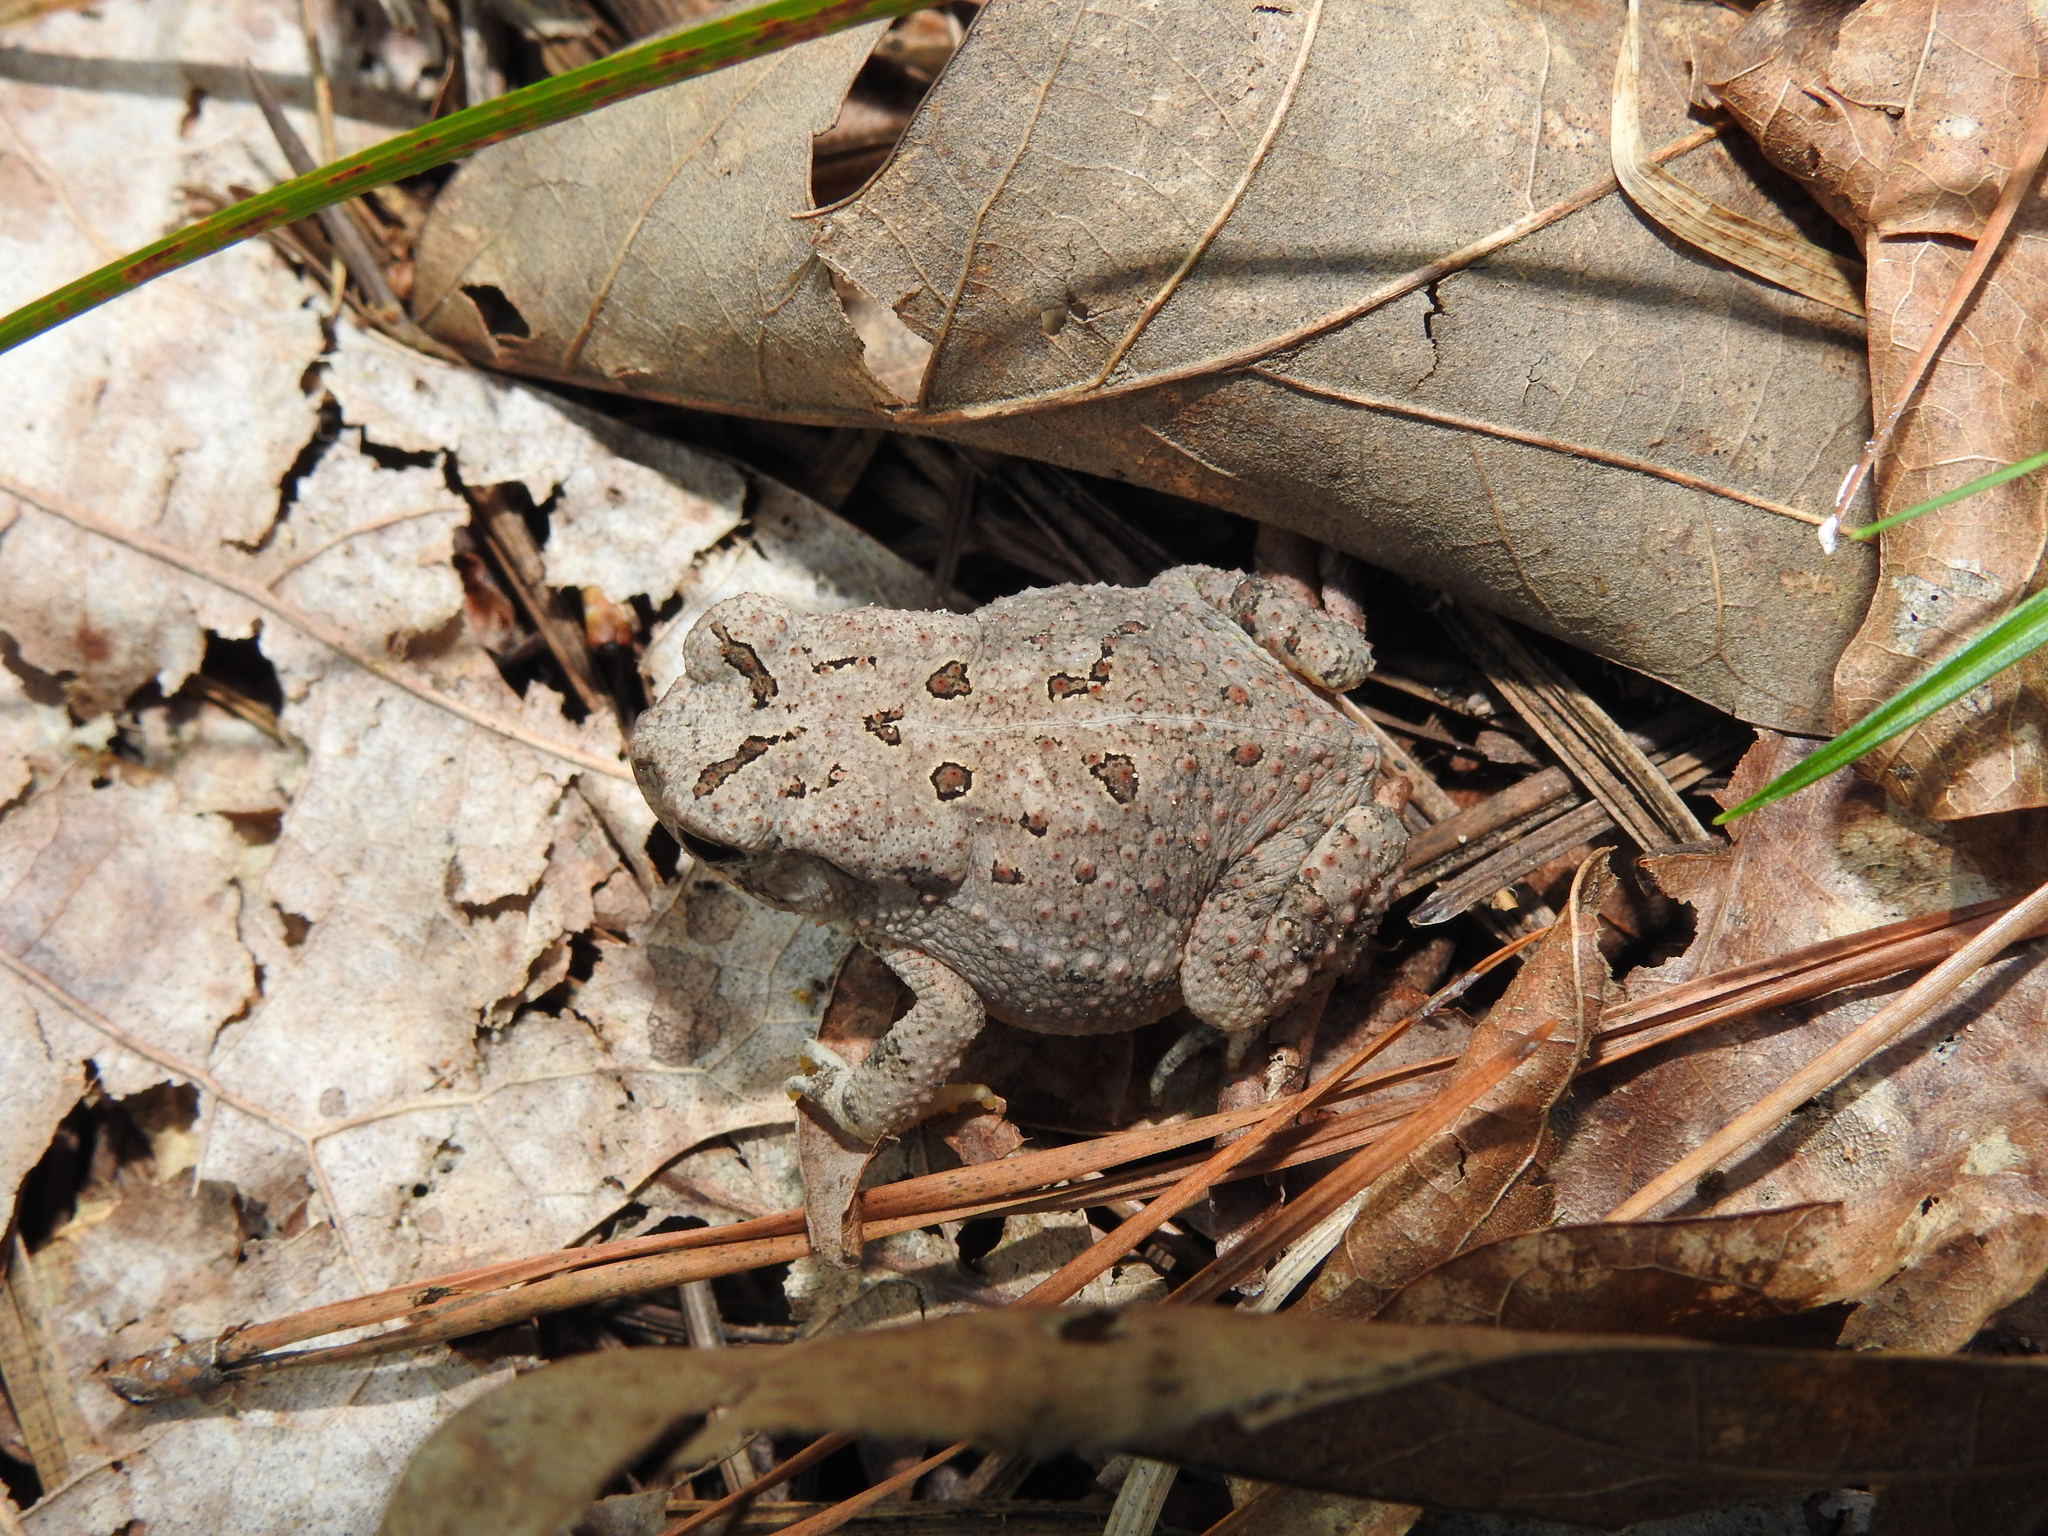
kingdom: Animalia
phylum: Chordata
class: Amphibia
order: Anura
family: Bufonidae
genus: Anaxyrus
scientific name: Anaxyrus fowleri
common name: Fowler's toad
